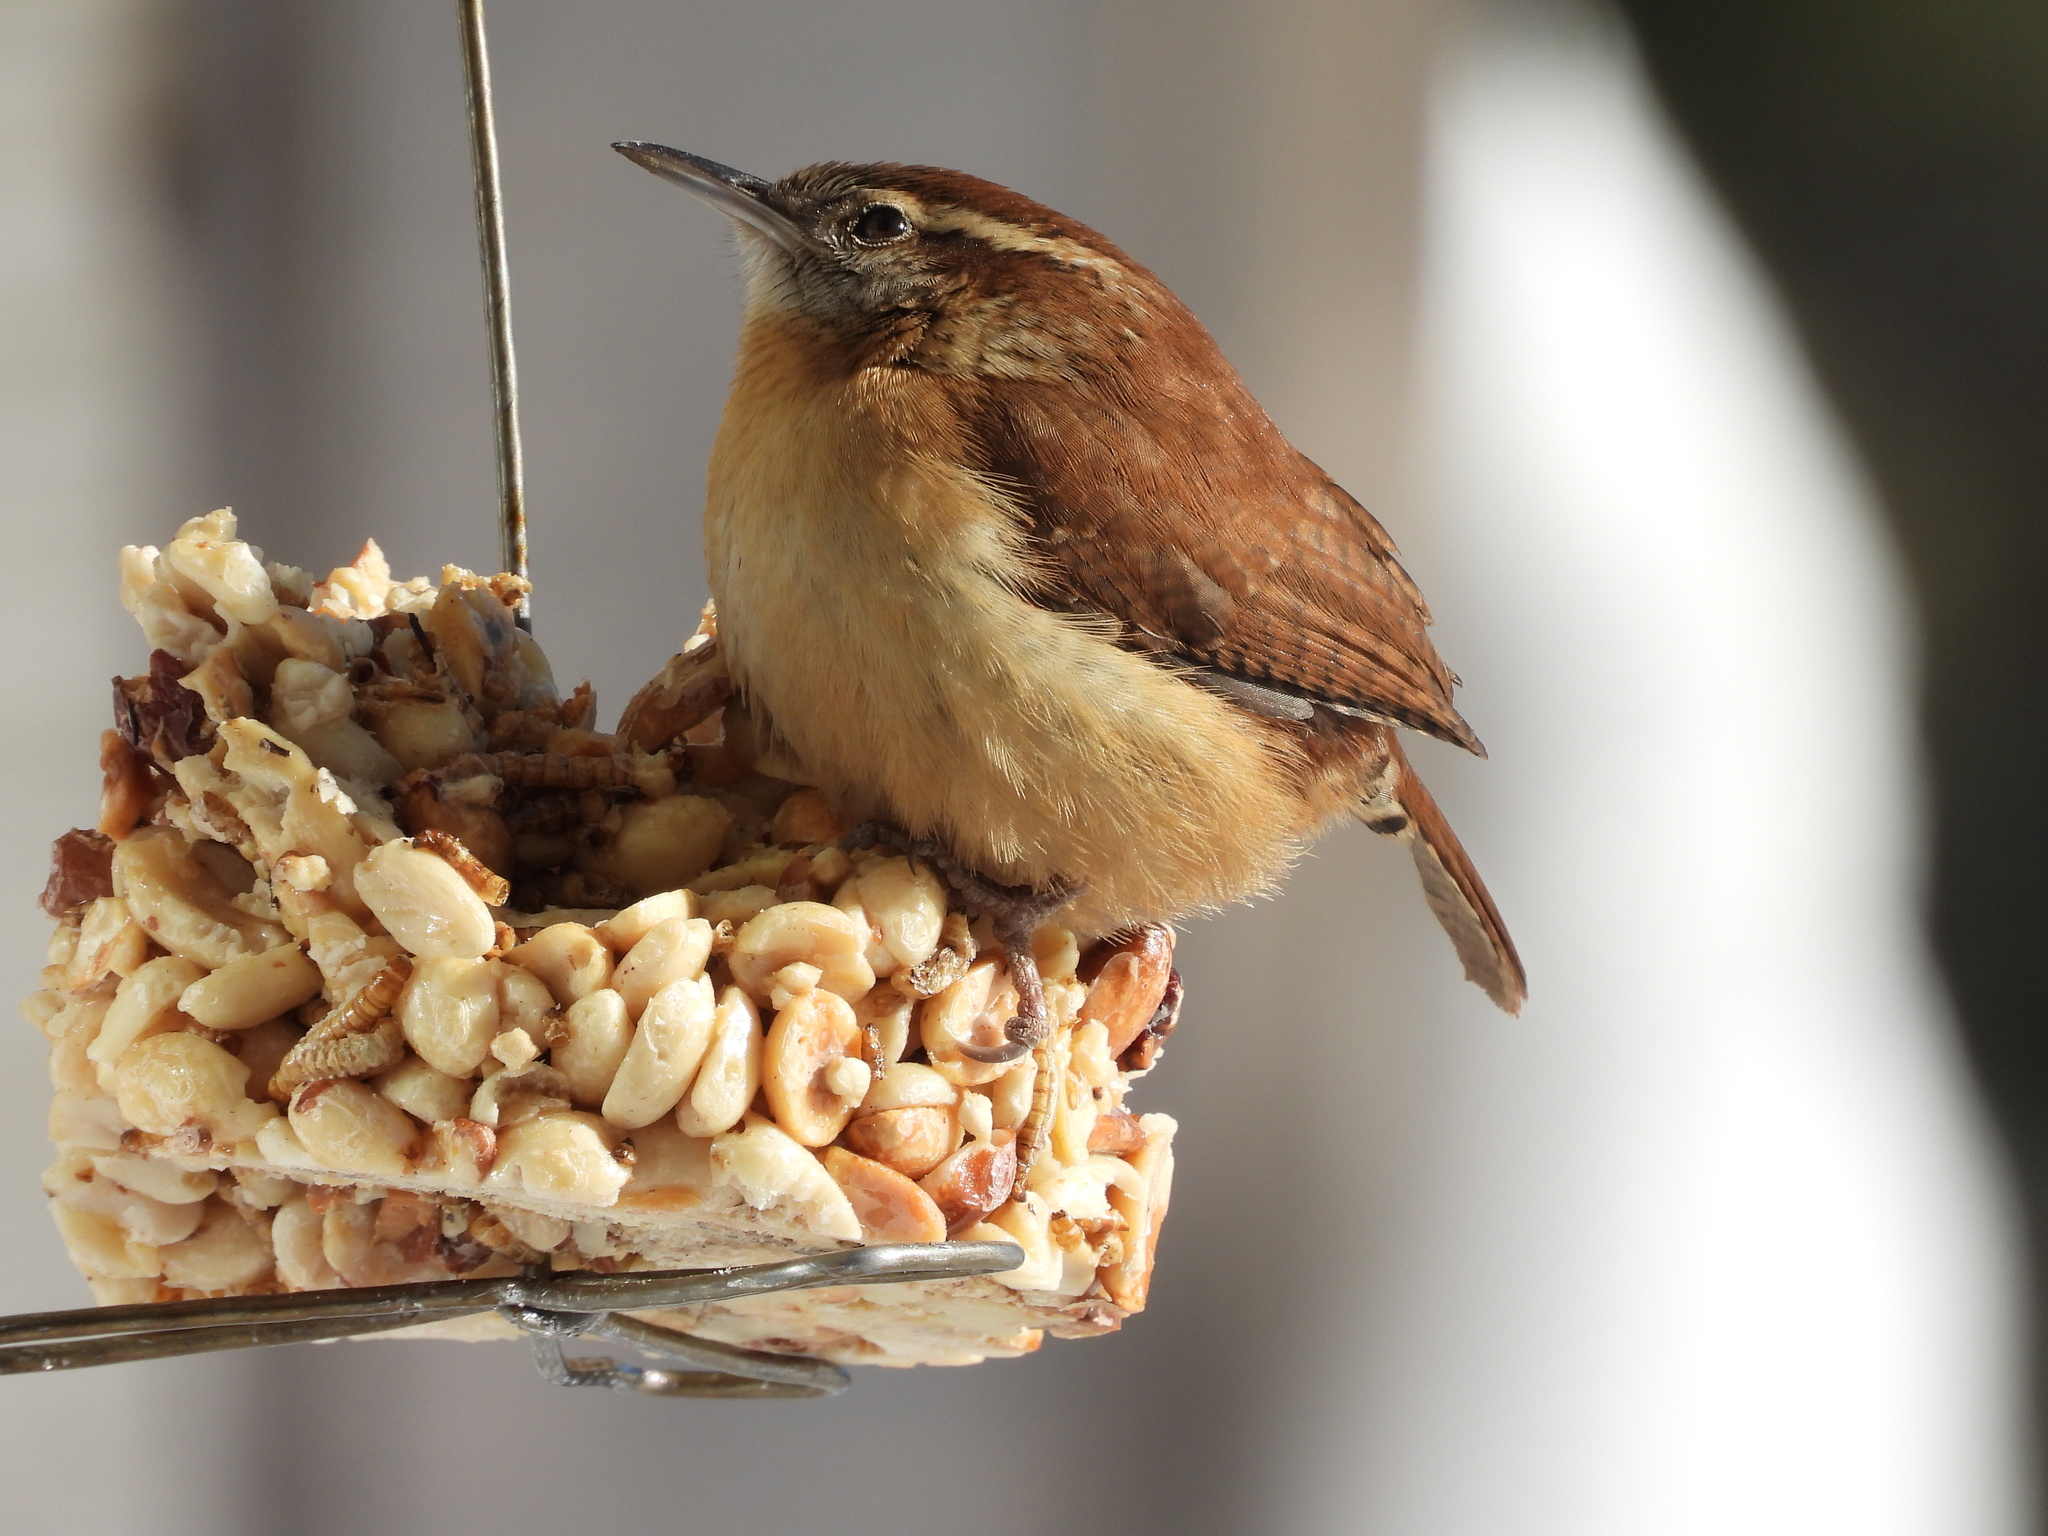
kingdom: Animalia
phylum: Chordata
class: Aves
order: Passeriformes
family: Troglodytidae
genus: Thryothorus
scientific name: Thryothorus ludovicianus
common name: Carolina wren
